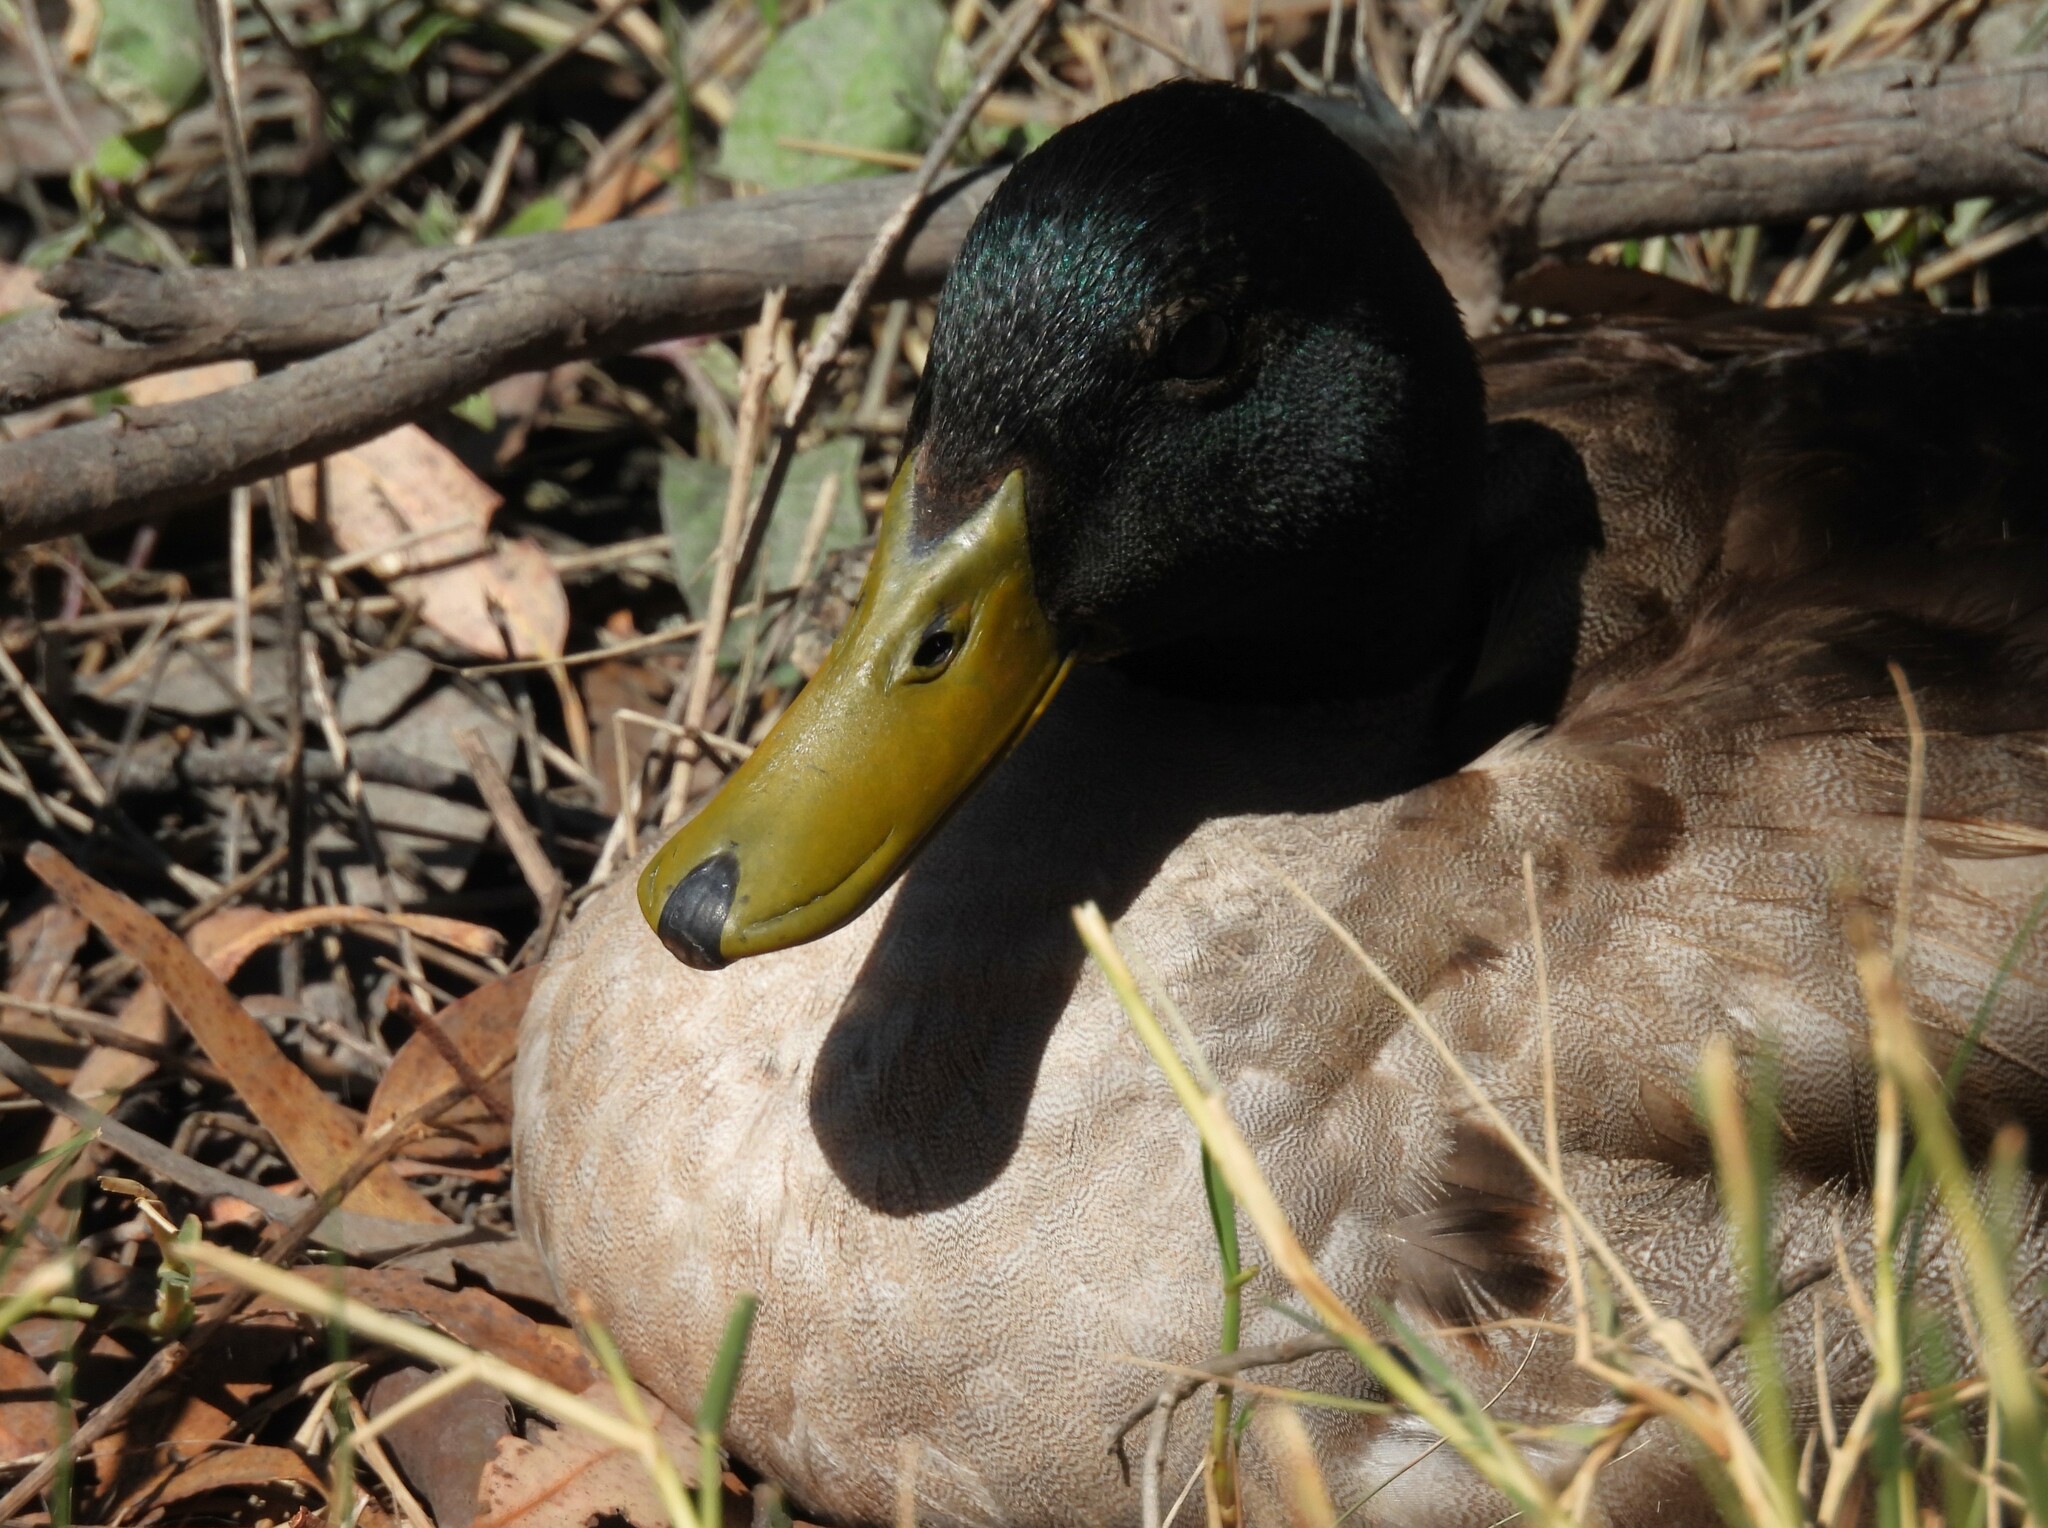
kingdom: Animalia
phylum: Chordata
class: Aves
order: Anseriformes
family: Anatidae
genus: Anas
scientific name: Anas platyrhynchos
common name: Mallard
